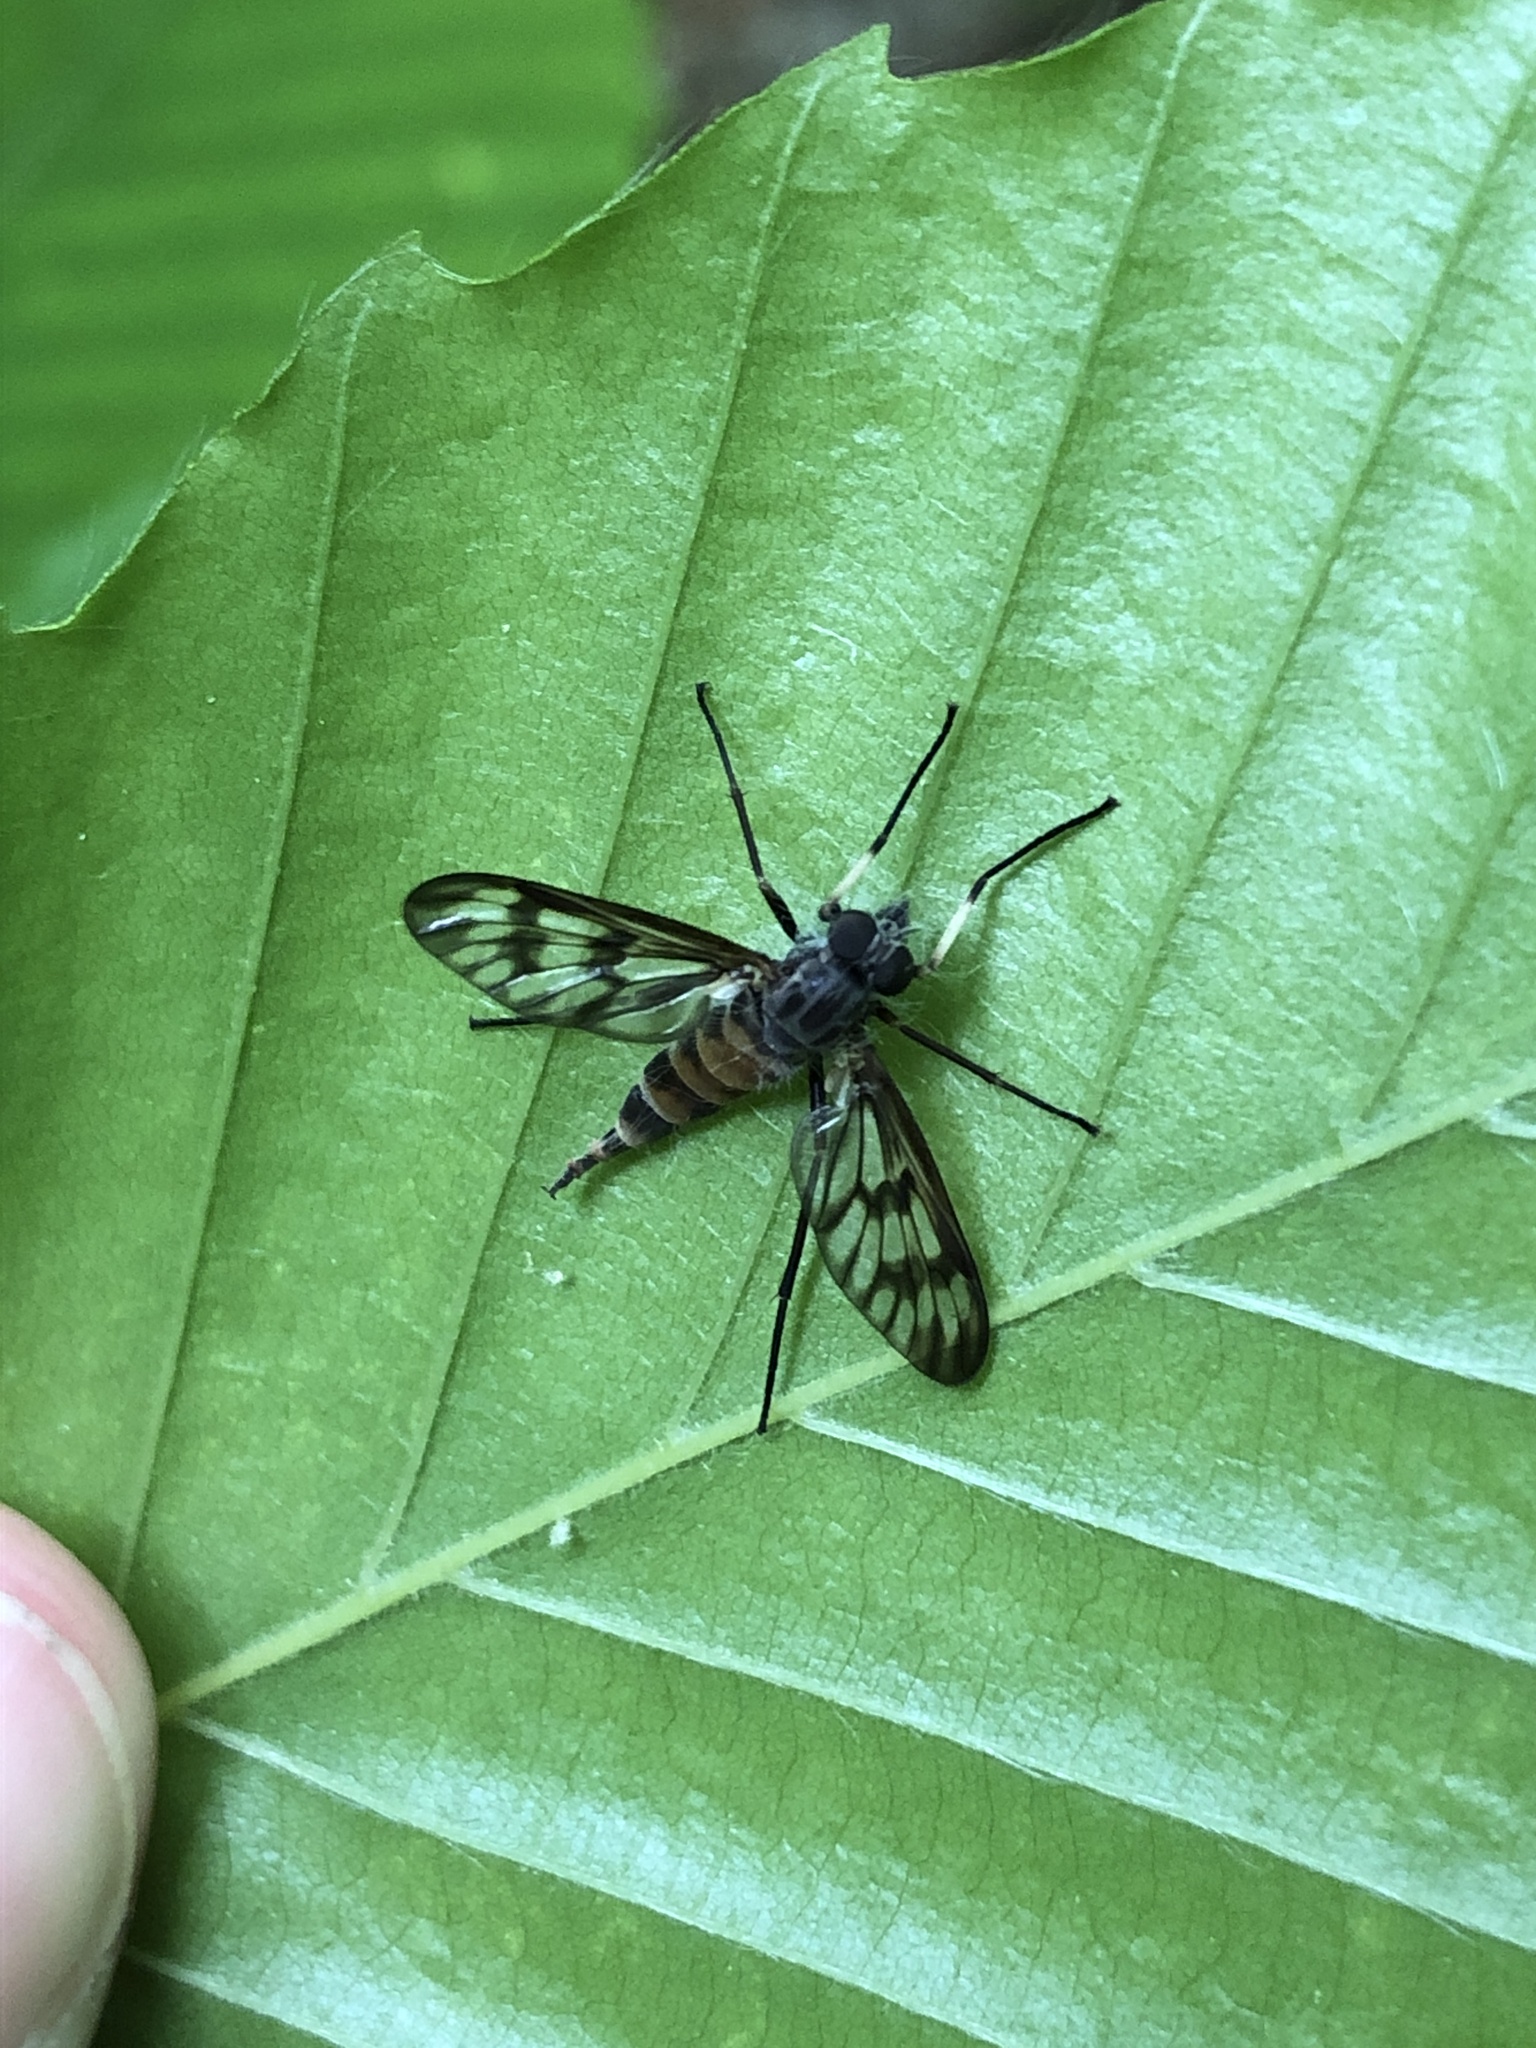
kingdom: Animalia
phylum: Arthropoda
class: Insecta
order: Diptera
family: Rhagionidae
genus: Rhagio
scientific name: Rhagio mystaceus
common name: Common snipe fly
